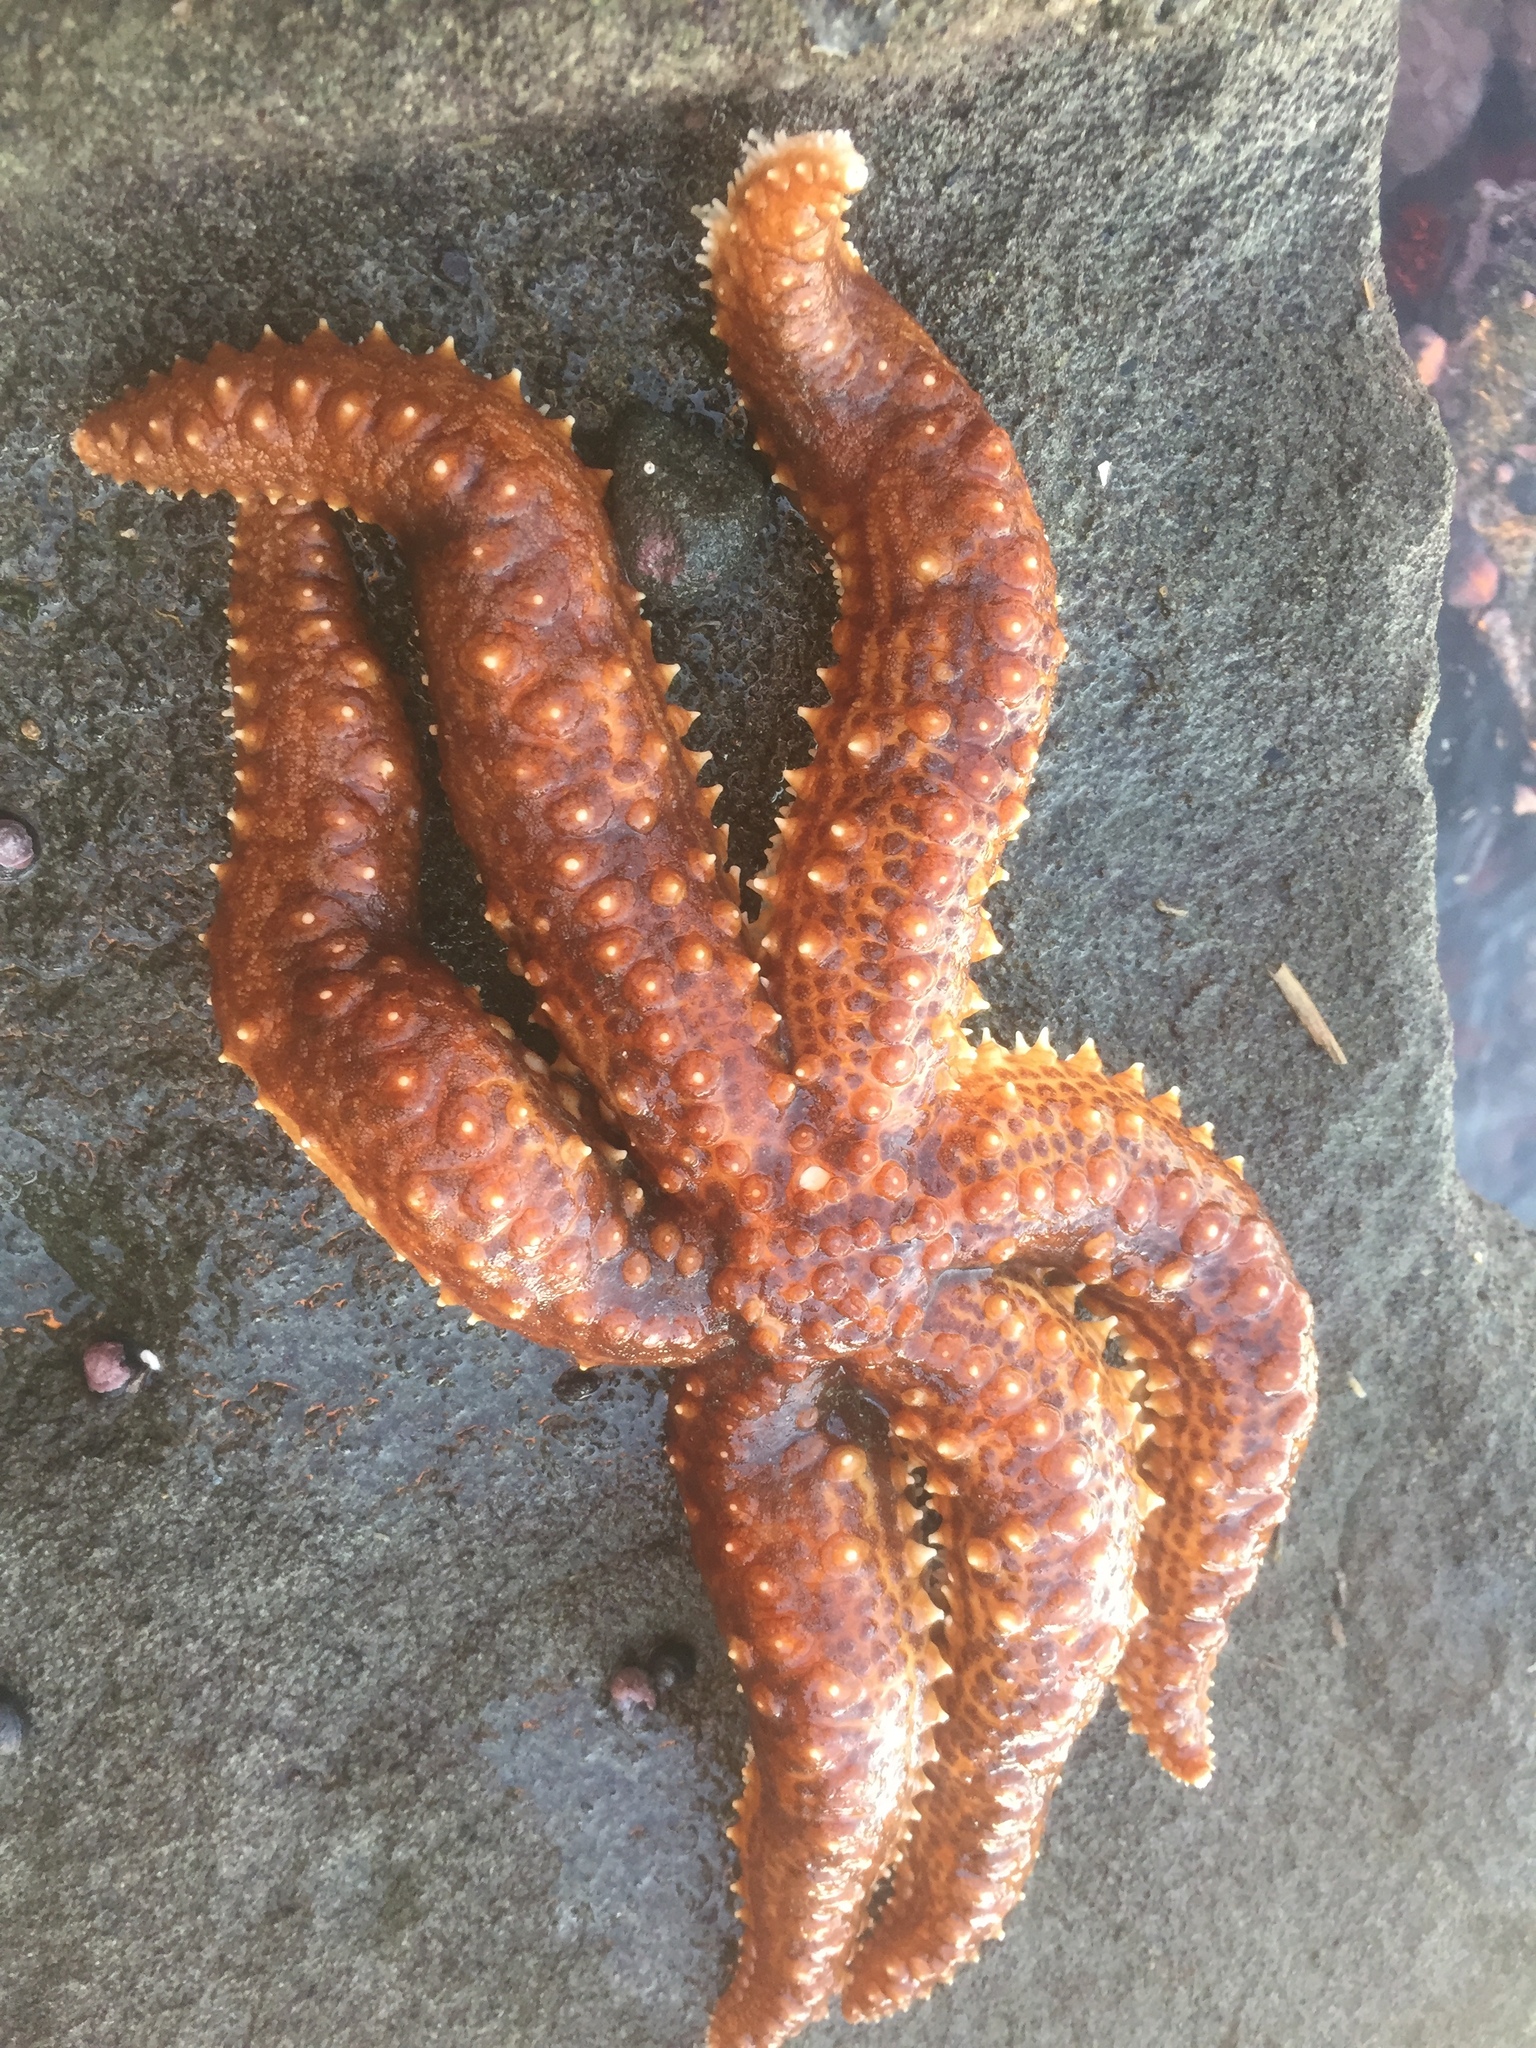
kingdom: Animalia
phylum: Echinodermata
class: Asteroidea
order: Forcipulatida
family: Asteriidae
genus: Meyenaster
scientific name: Meyenaster gelatinosus
